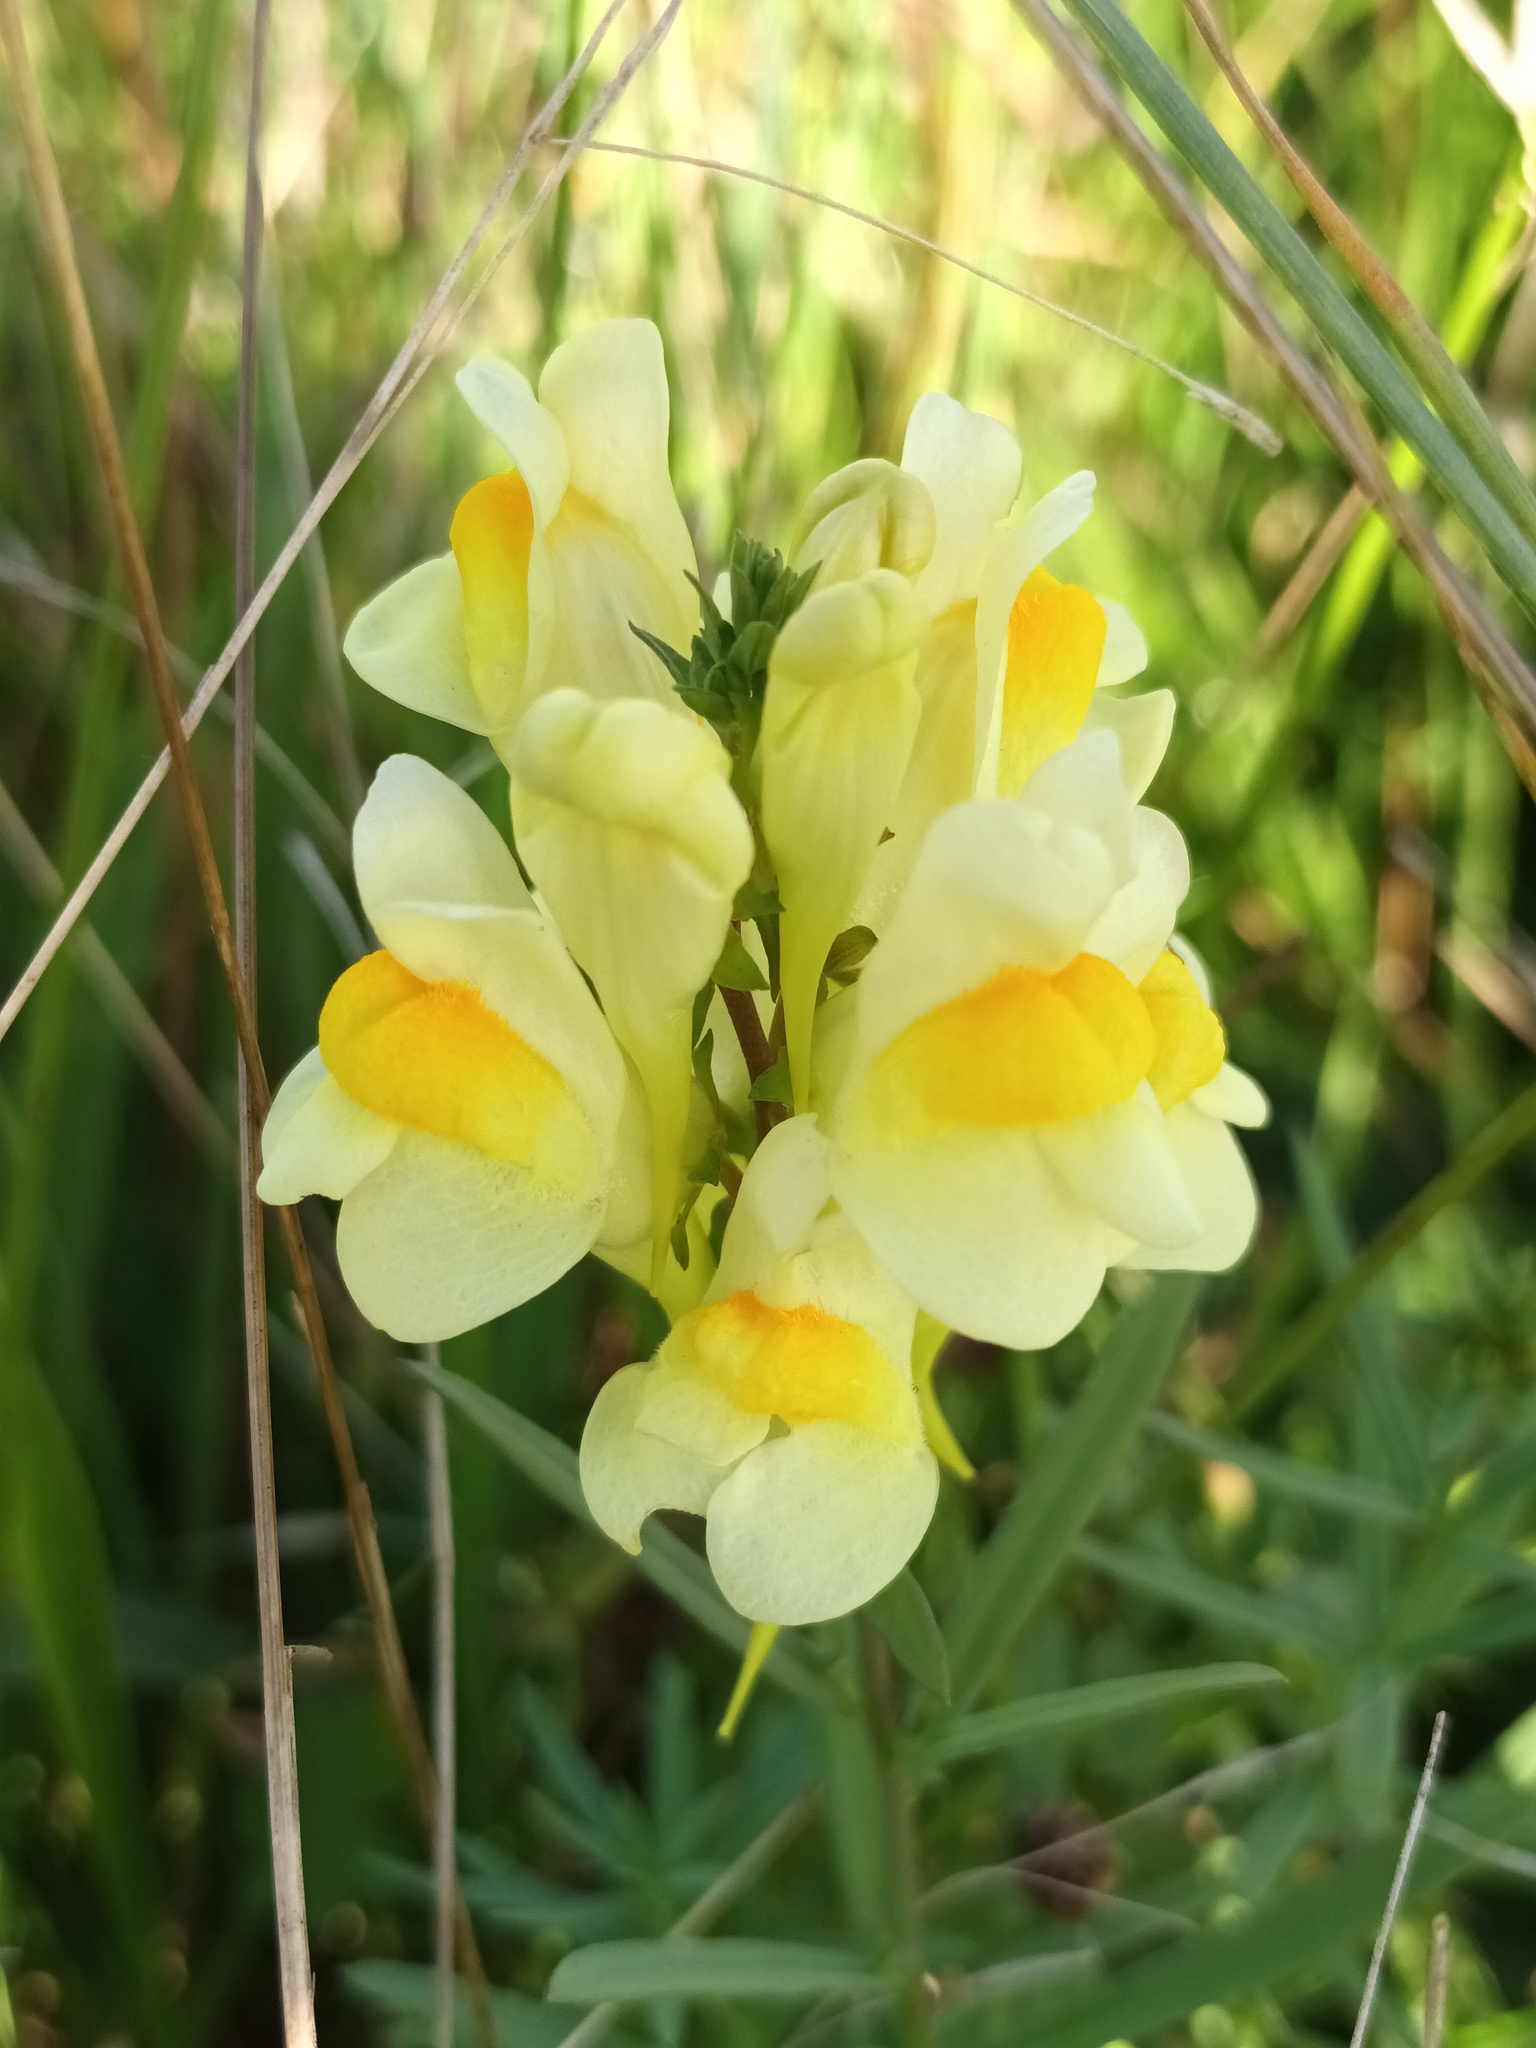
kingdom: Plantae
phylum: Tracheophyta
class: Magnoliopsida
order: Lamiales
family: Plantaginaceae
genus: Linaria
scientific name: Linaria vulgaris
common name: Butter and eggs
